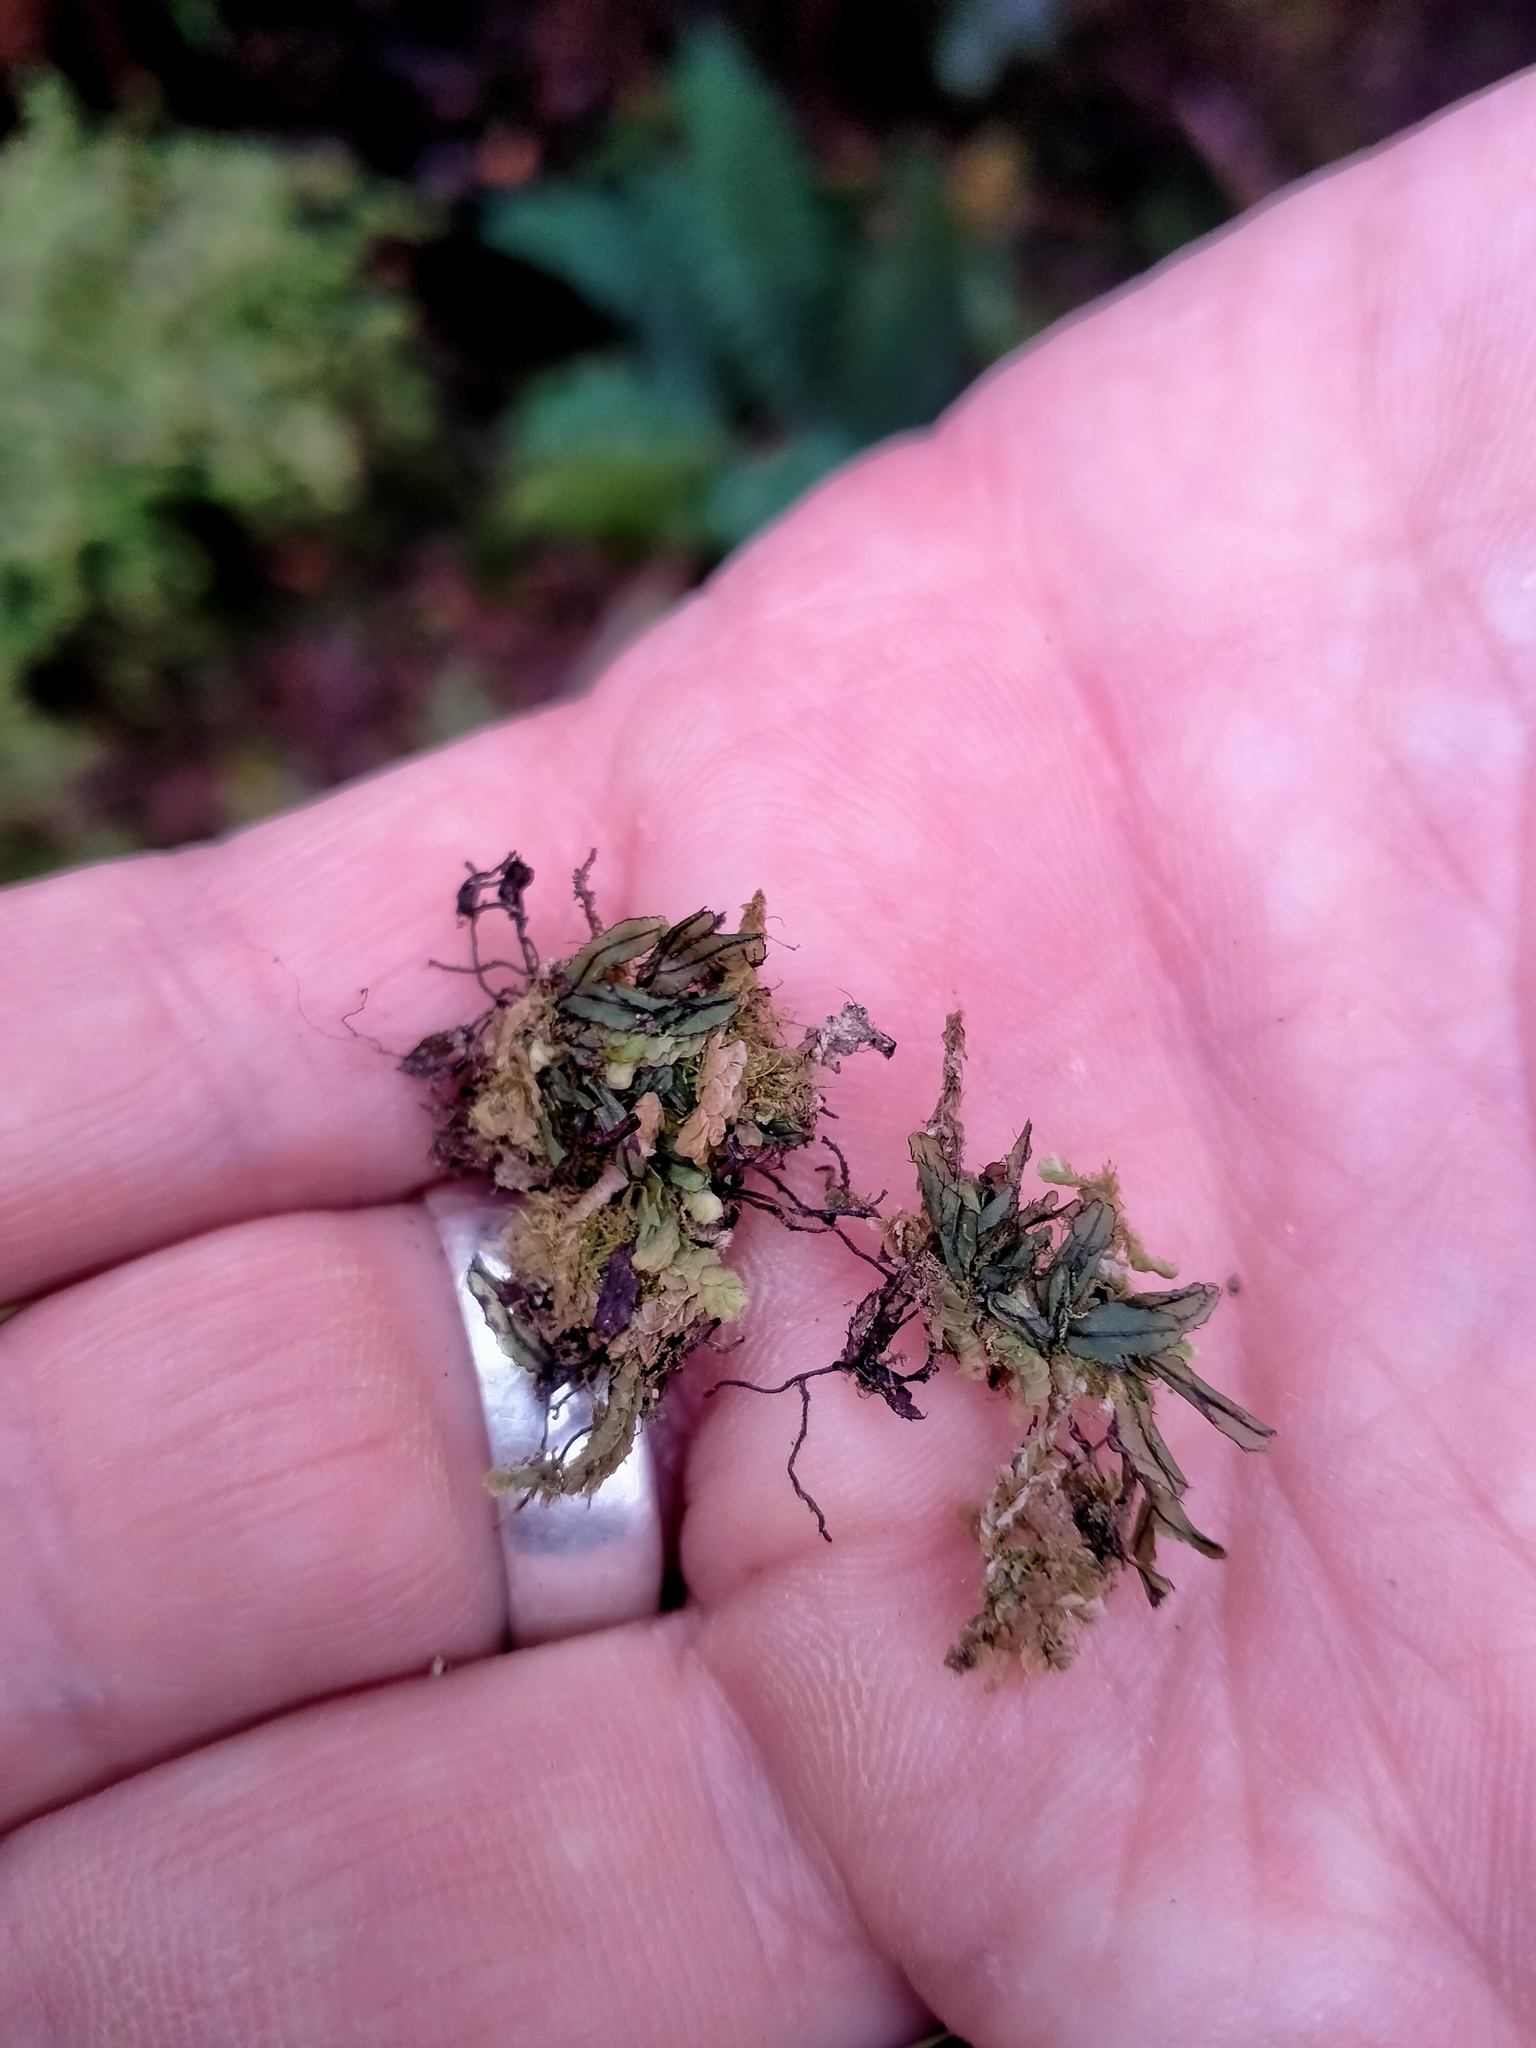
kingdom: Plantae
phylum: Tracheophyta
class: Polypodiopsida
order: Hymenophyllales
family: Hymenophyllaceae
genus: Hymenophyllum
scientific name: Hymenophyllum armstrongii
